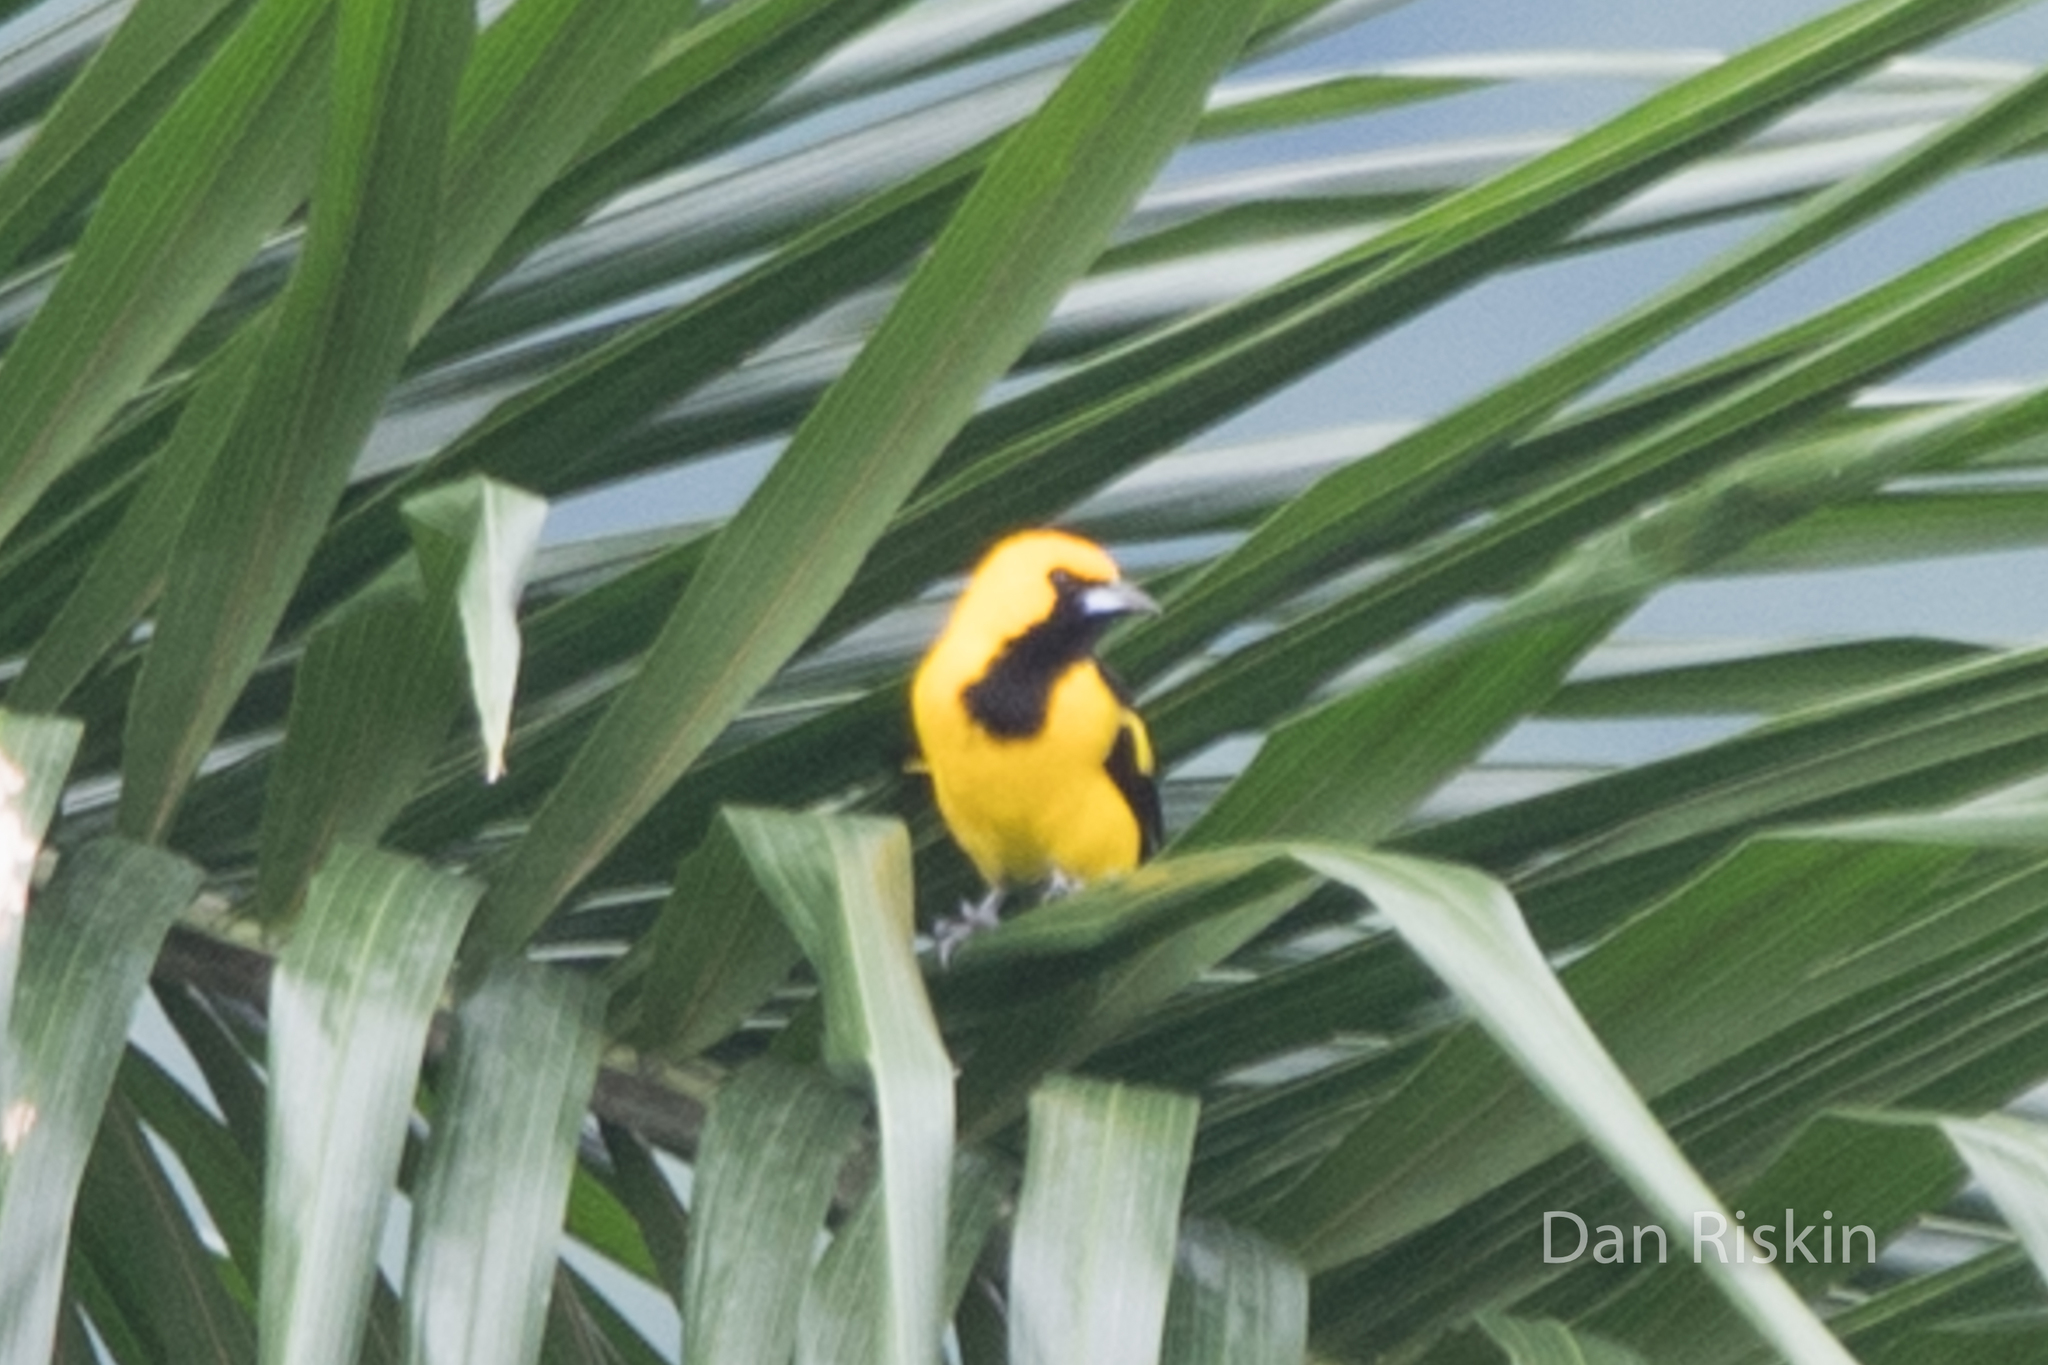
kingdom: Animalia
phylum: Chordata
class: Aves
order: Passeriformes
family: Icteridae
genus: Icterus
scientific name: Icterus mesomelas
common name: Yellow-tailed oriole
